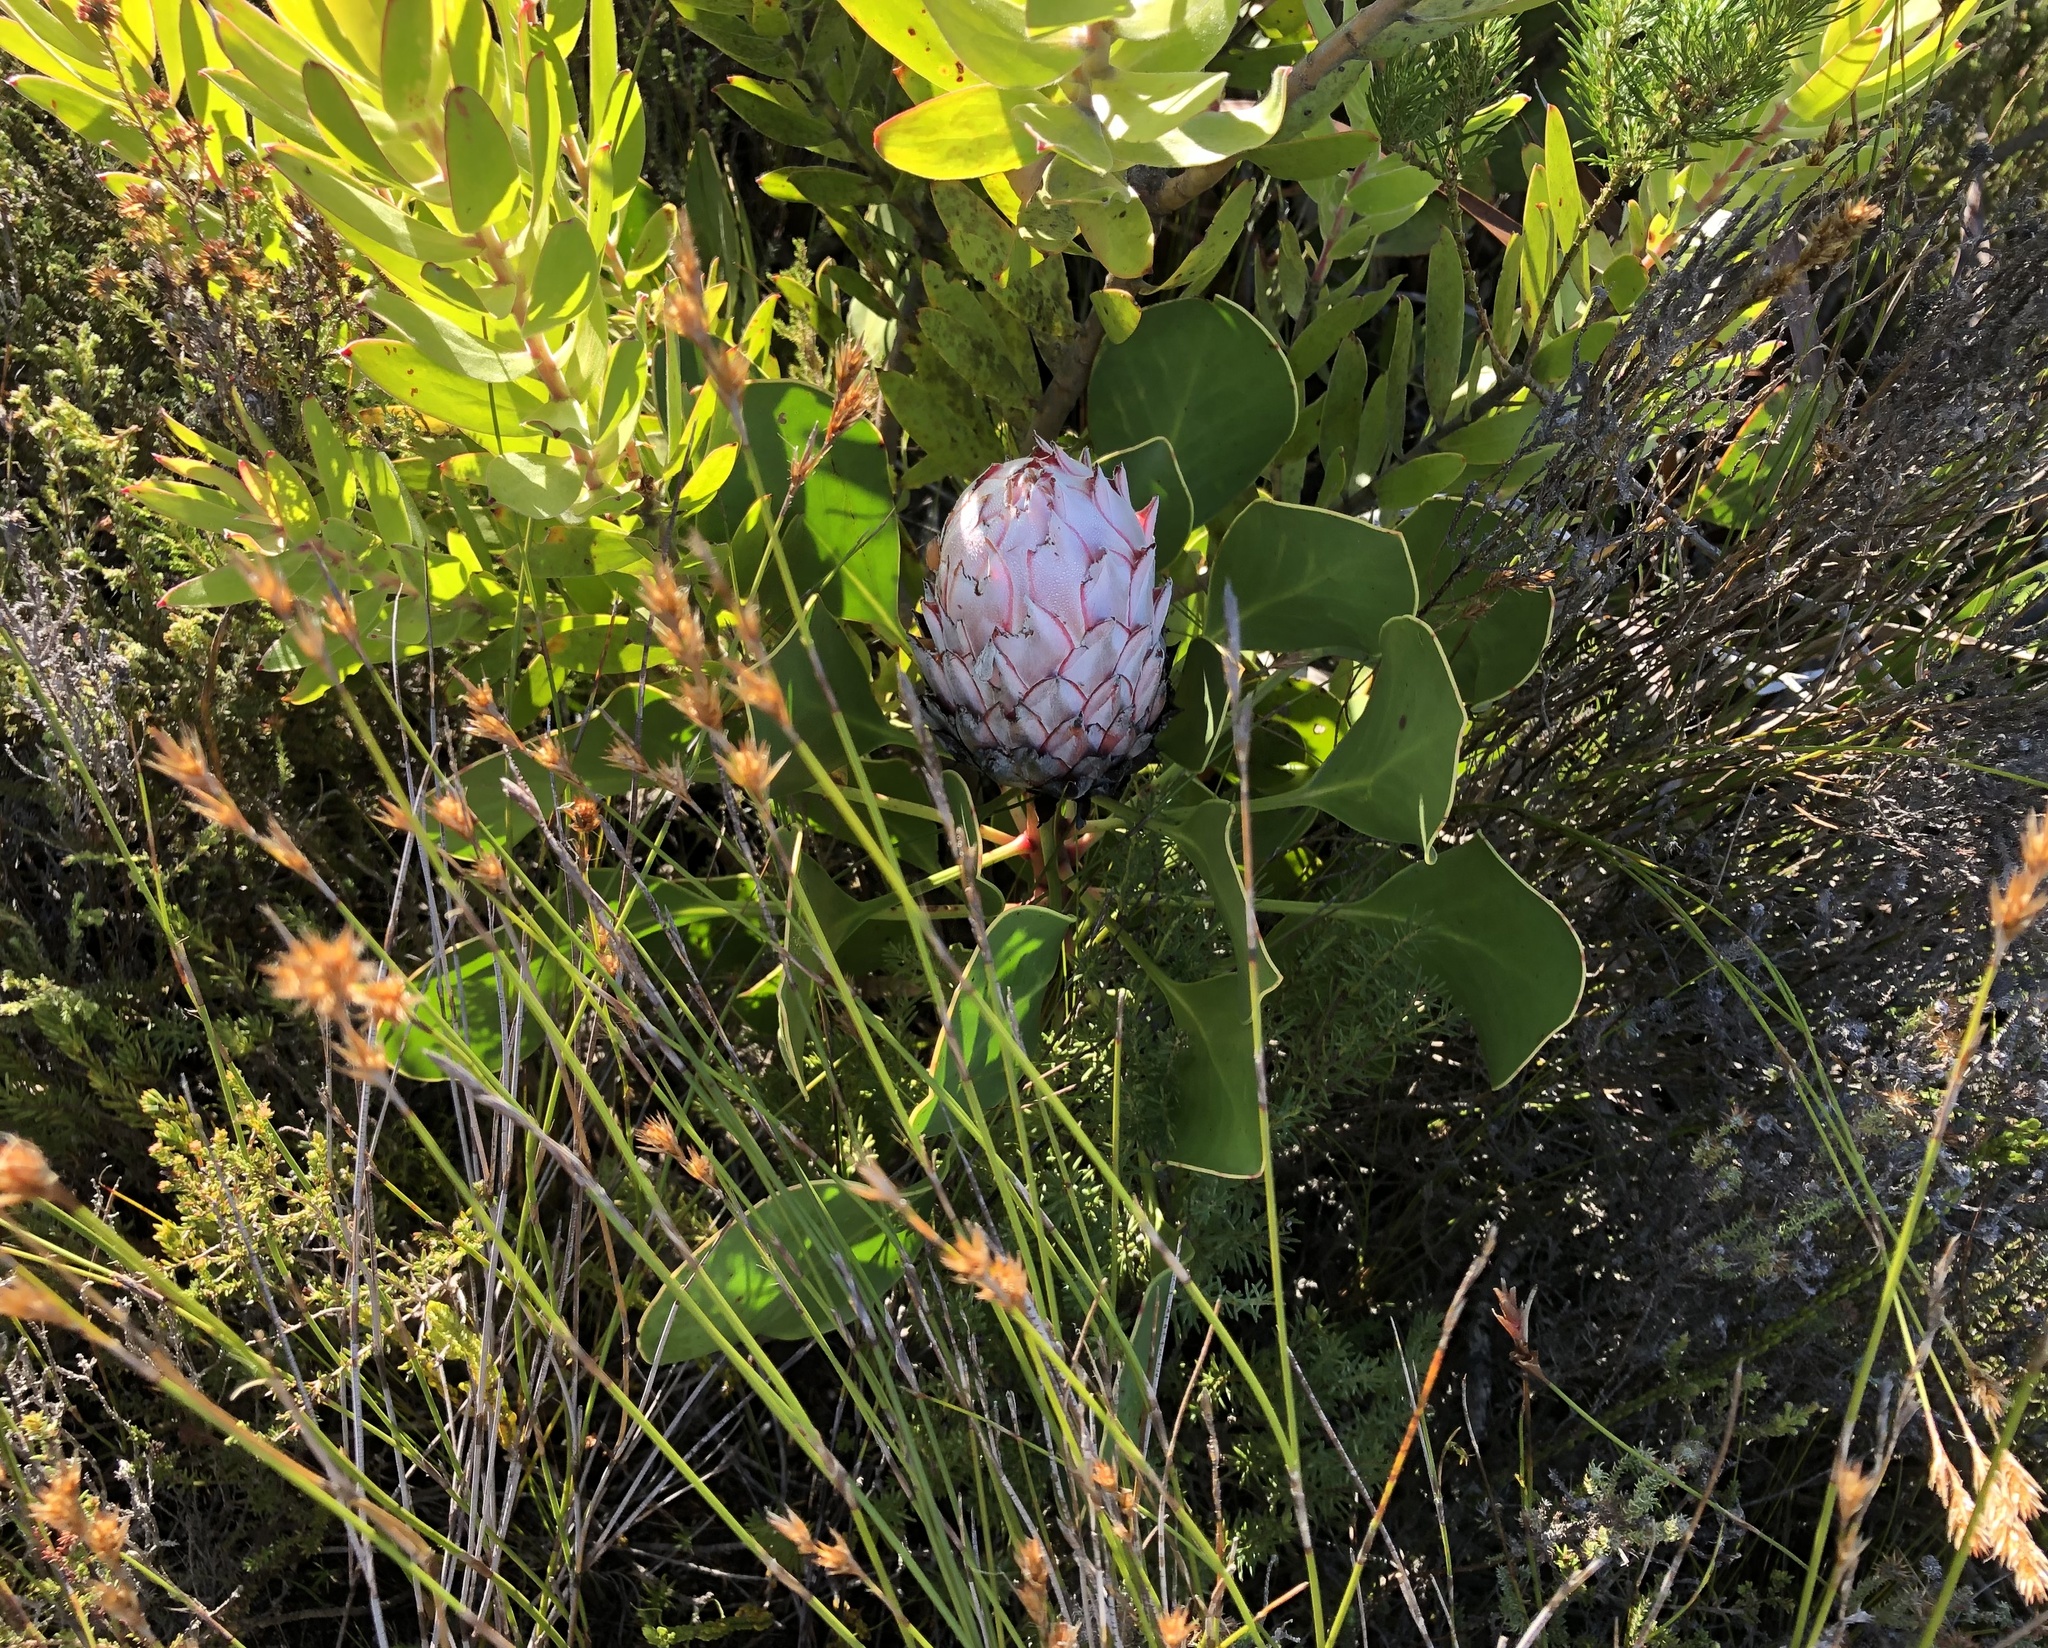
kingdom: Plantae
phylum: Tracheophyta
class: Magnoliopsida
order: Proteales
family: Proteaceae
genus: Protea
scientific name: Protea cynaroides
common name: King protea
